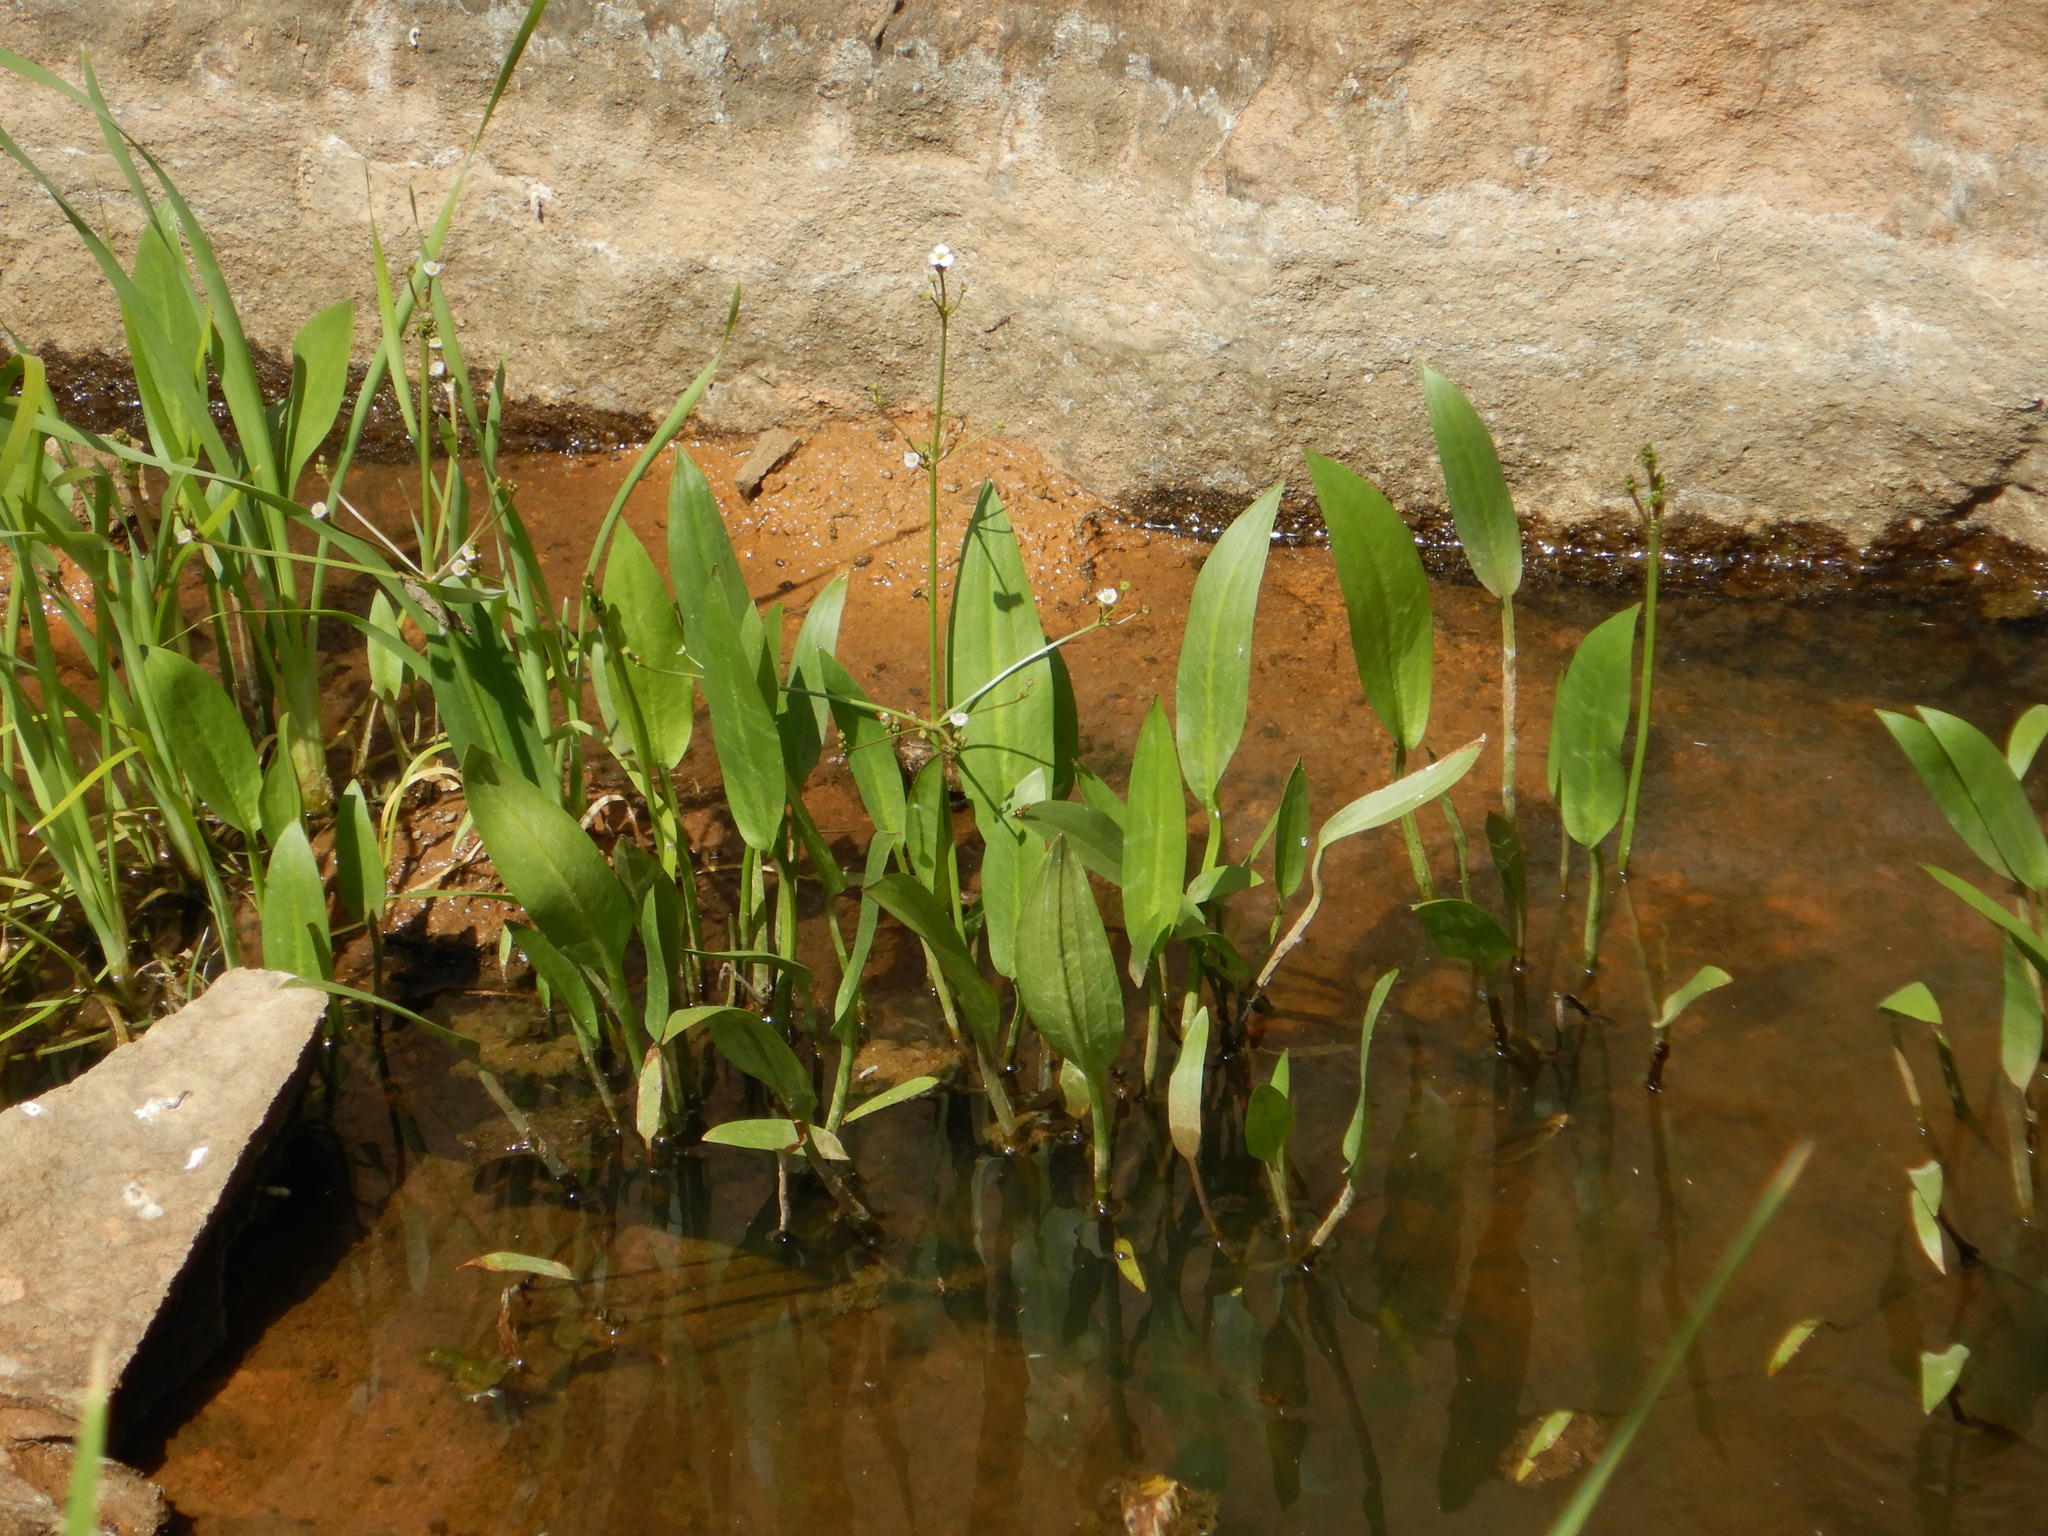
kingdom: Plantae
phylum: Tracheophyta
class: Liliopsida
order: Alismatales
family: Alismataceae
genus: Alisma
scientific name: Alisma lanceolatum
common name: Narrow-leaved water-plantain
